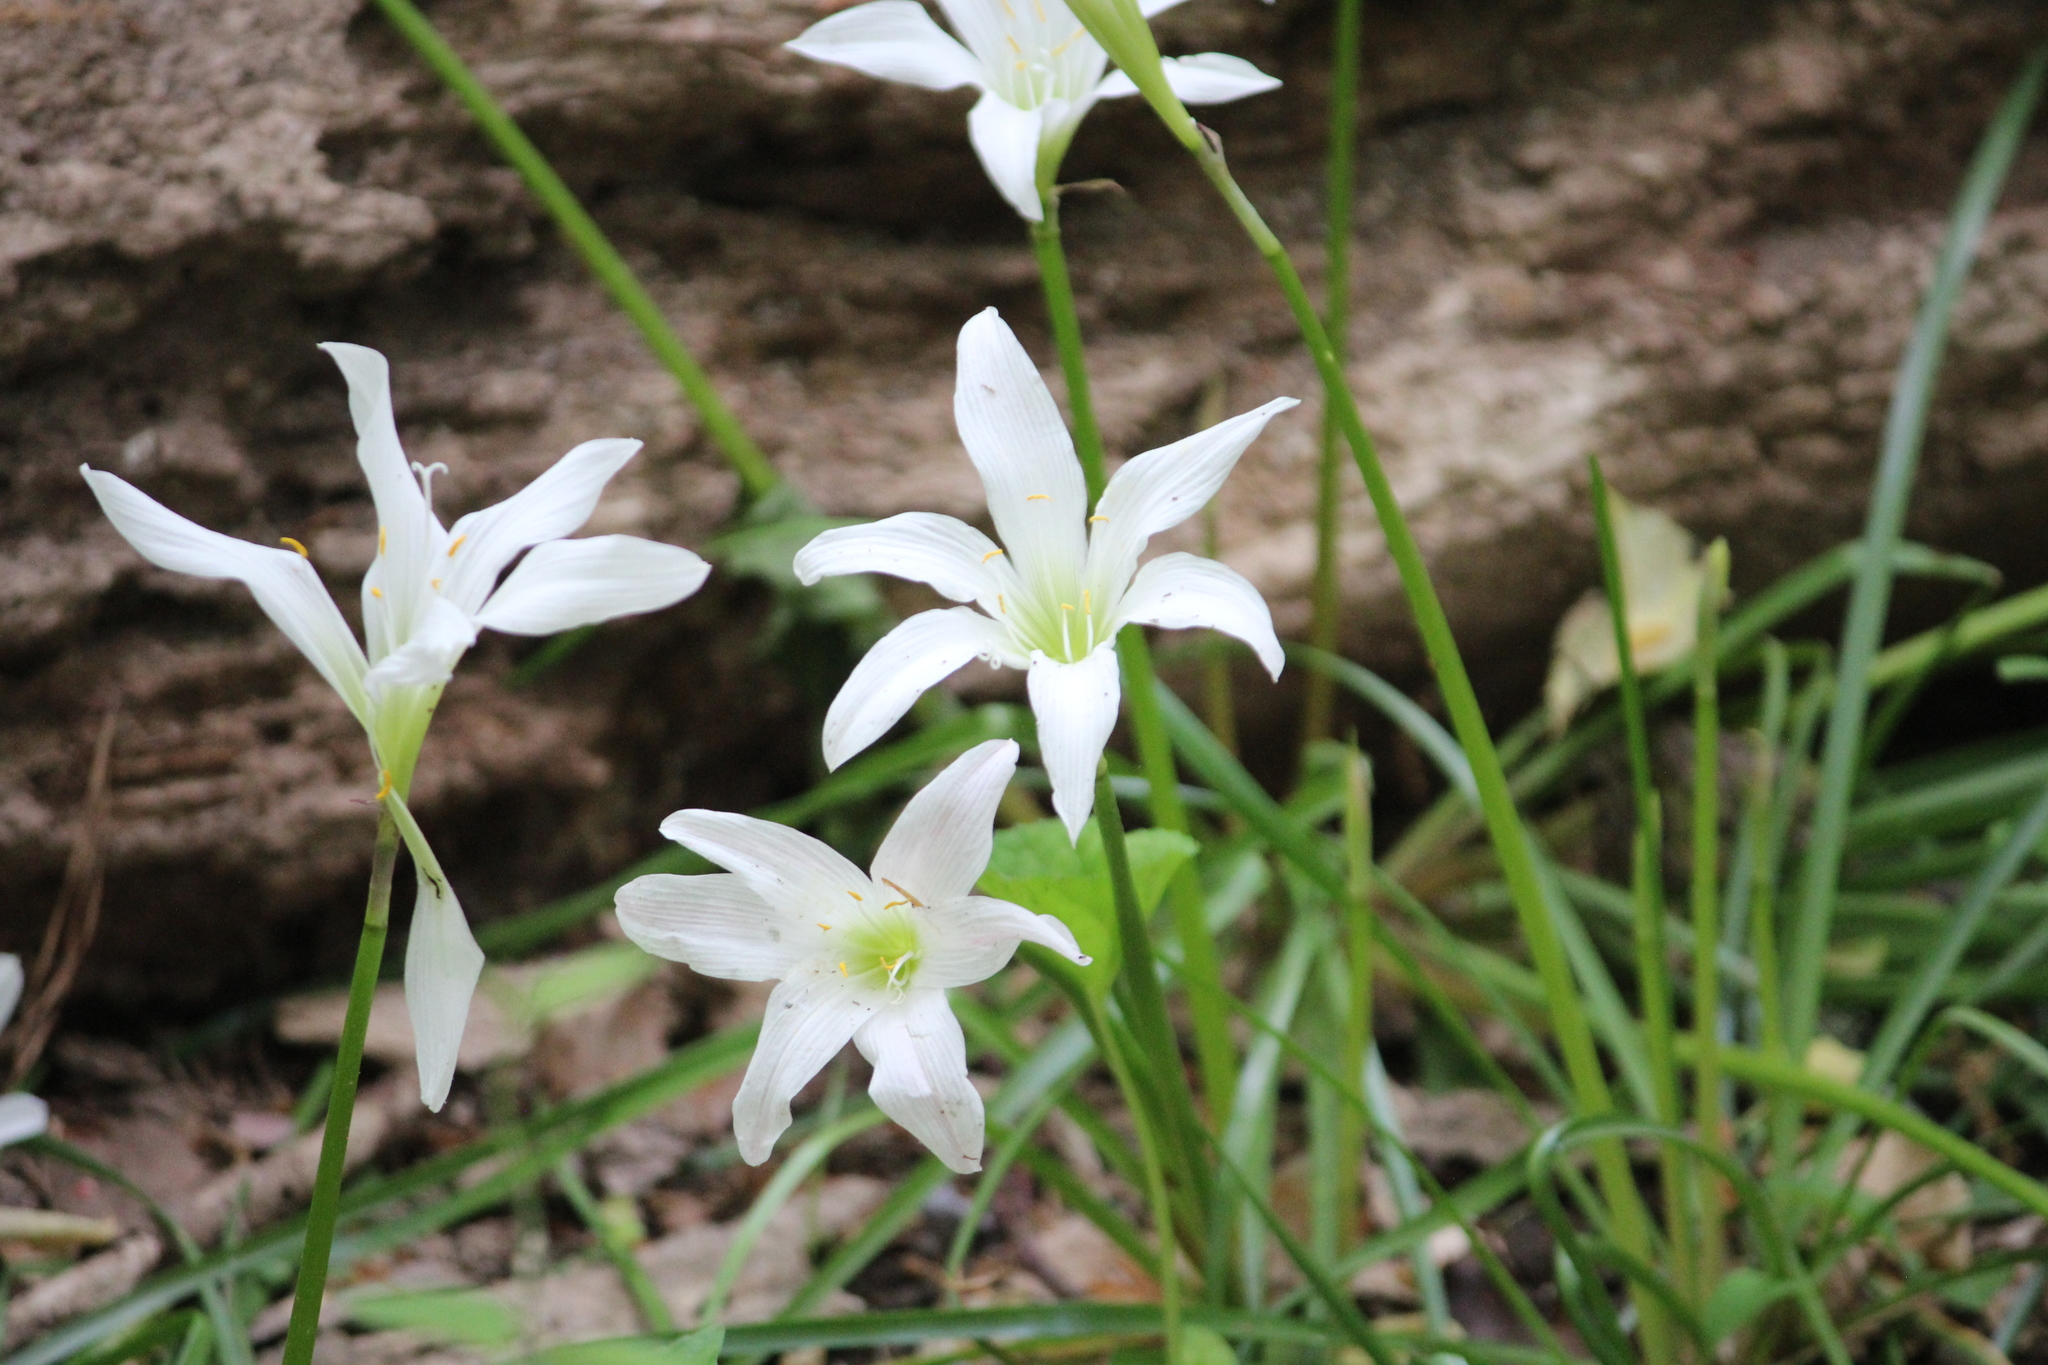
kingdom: Plantae
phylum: Tracheophyta
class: Liliopsida
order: Asparagales
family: Amaryllidaceae
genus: Zephyranthes
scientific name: Zephyranthes atamasco
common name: Atamasco lily
